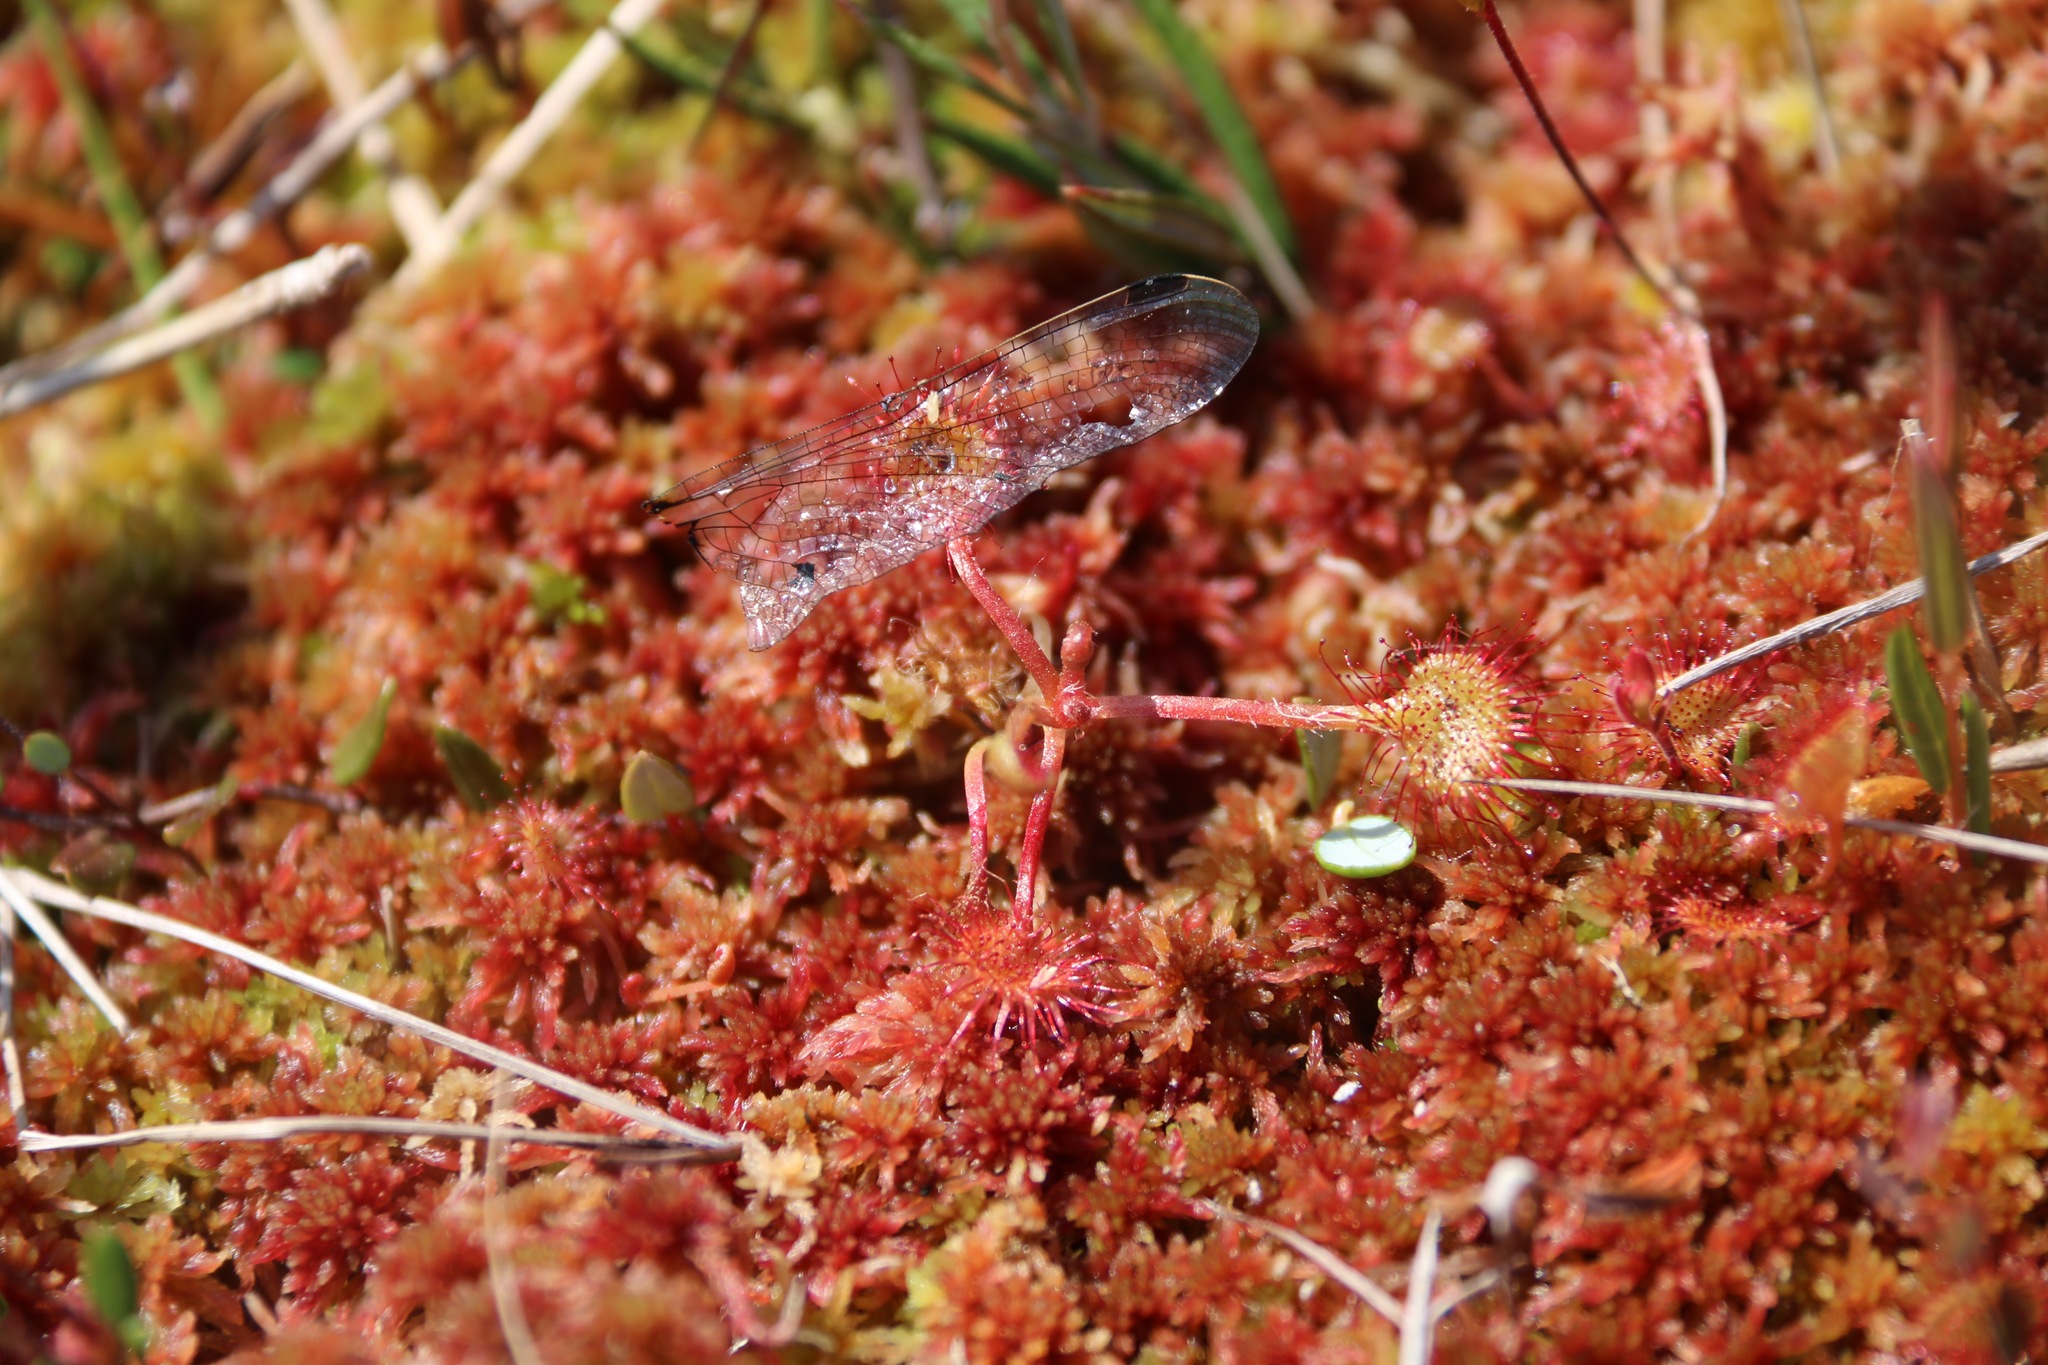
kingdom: Plantae
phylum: Tracheophyta
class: Magnoliopsida
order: Caryophyllales
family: Droseraceae
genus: Drosera
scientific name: Drosera rotundifolia
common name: Round-leaved sundew
